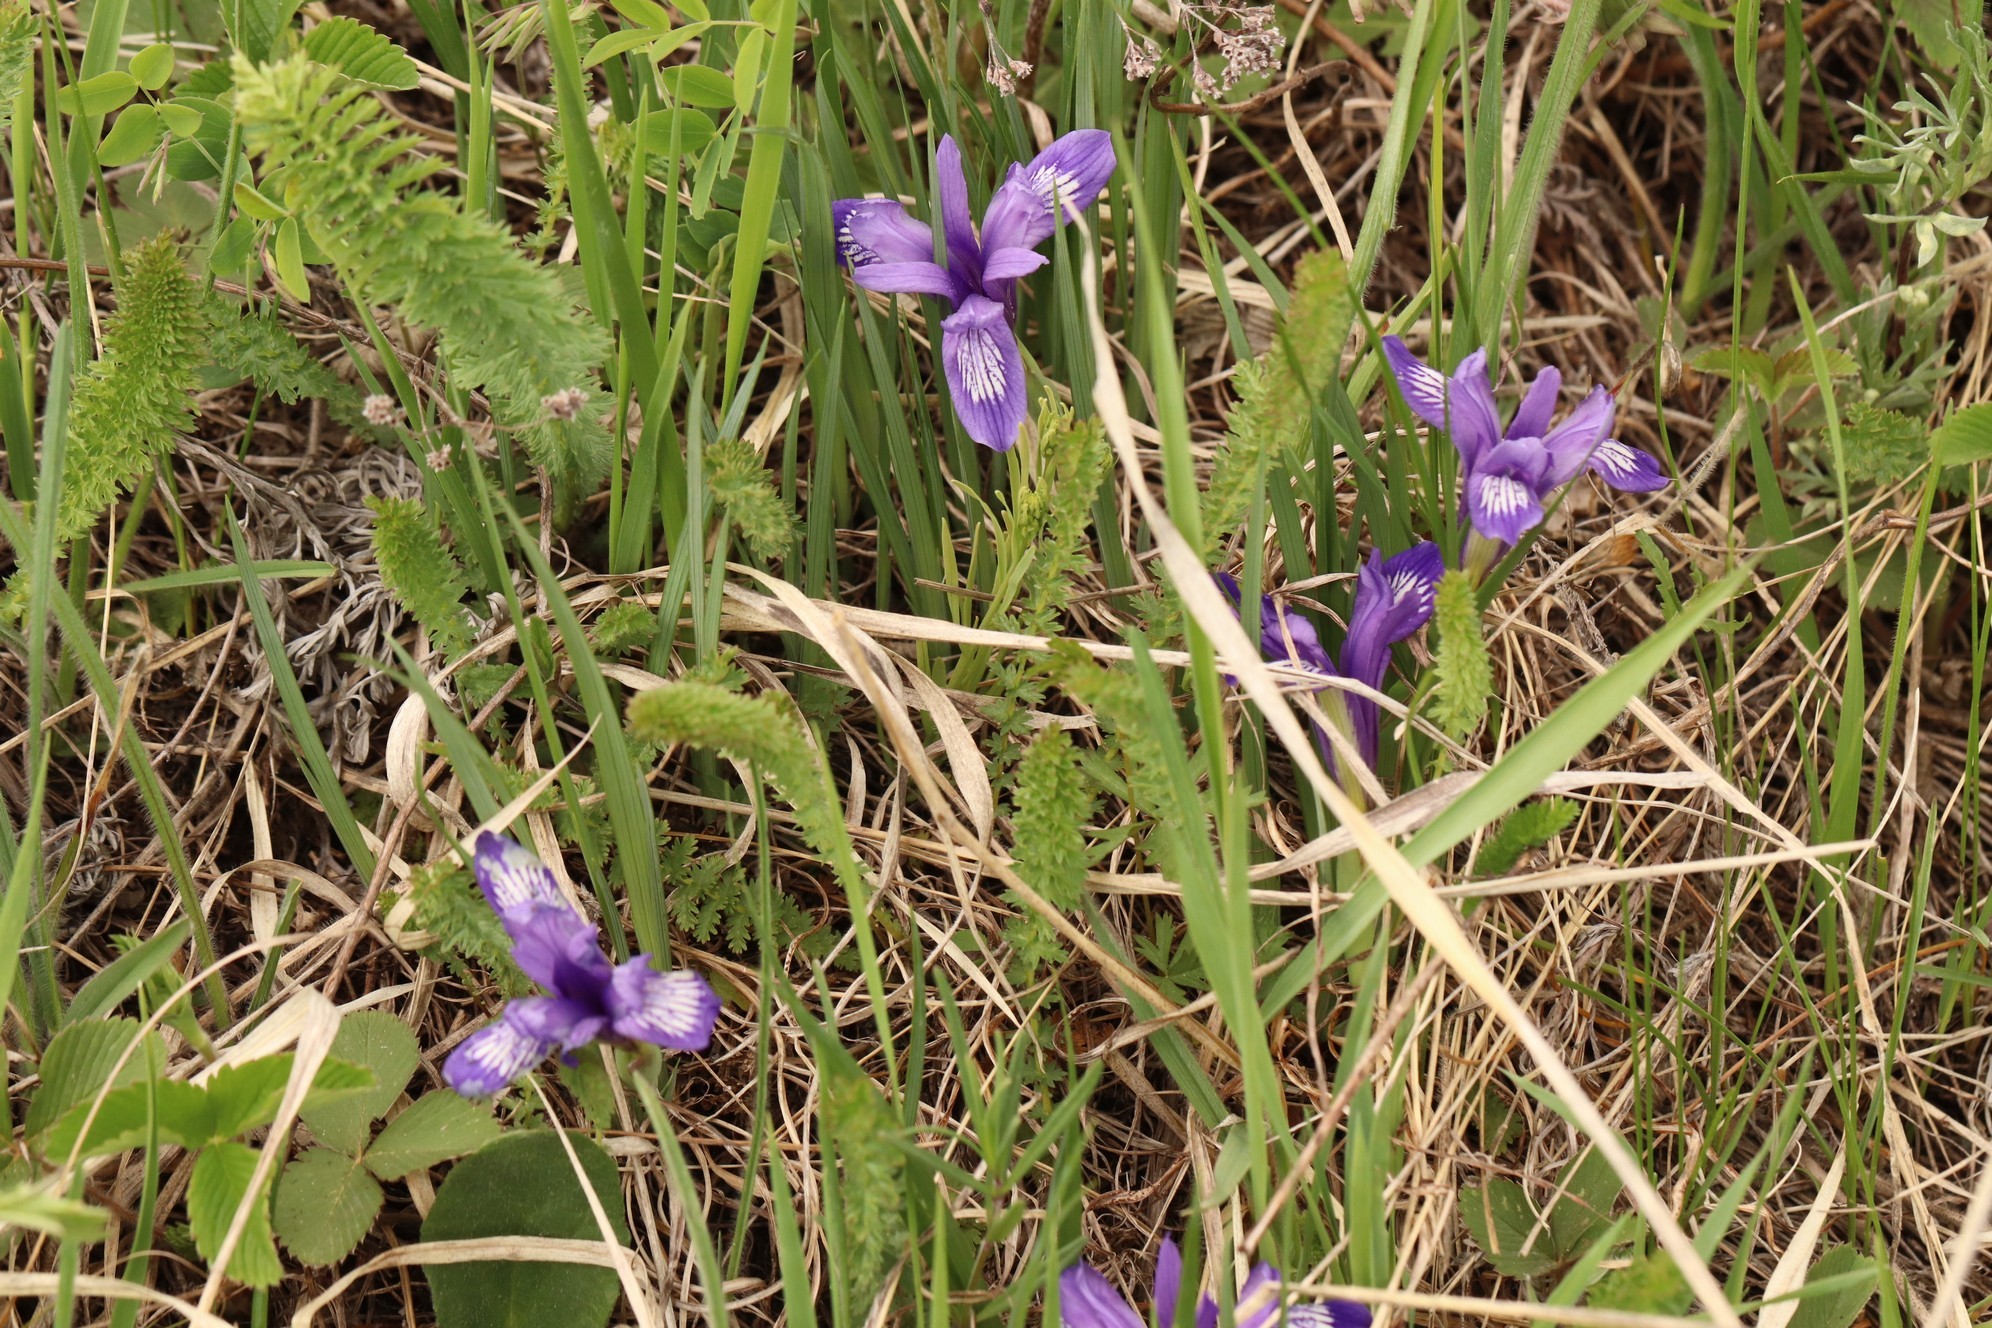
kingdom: Plantae
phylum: Tracheophyta
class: Liliopsida
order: Asparagales
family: Iridaceae
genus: Iris
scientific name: Iris ruthenica
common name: Purple-bract iris
